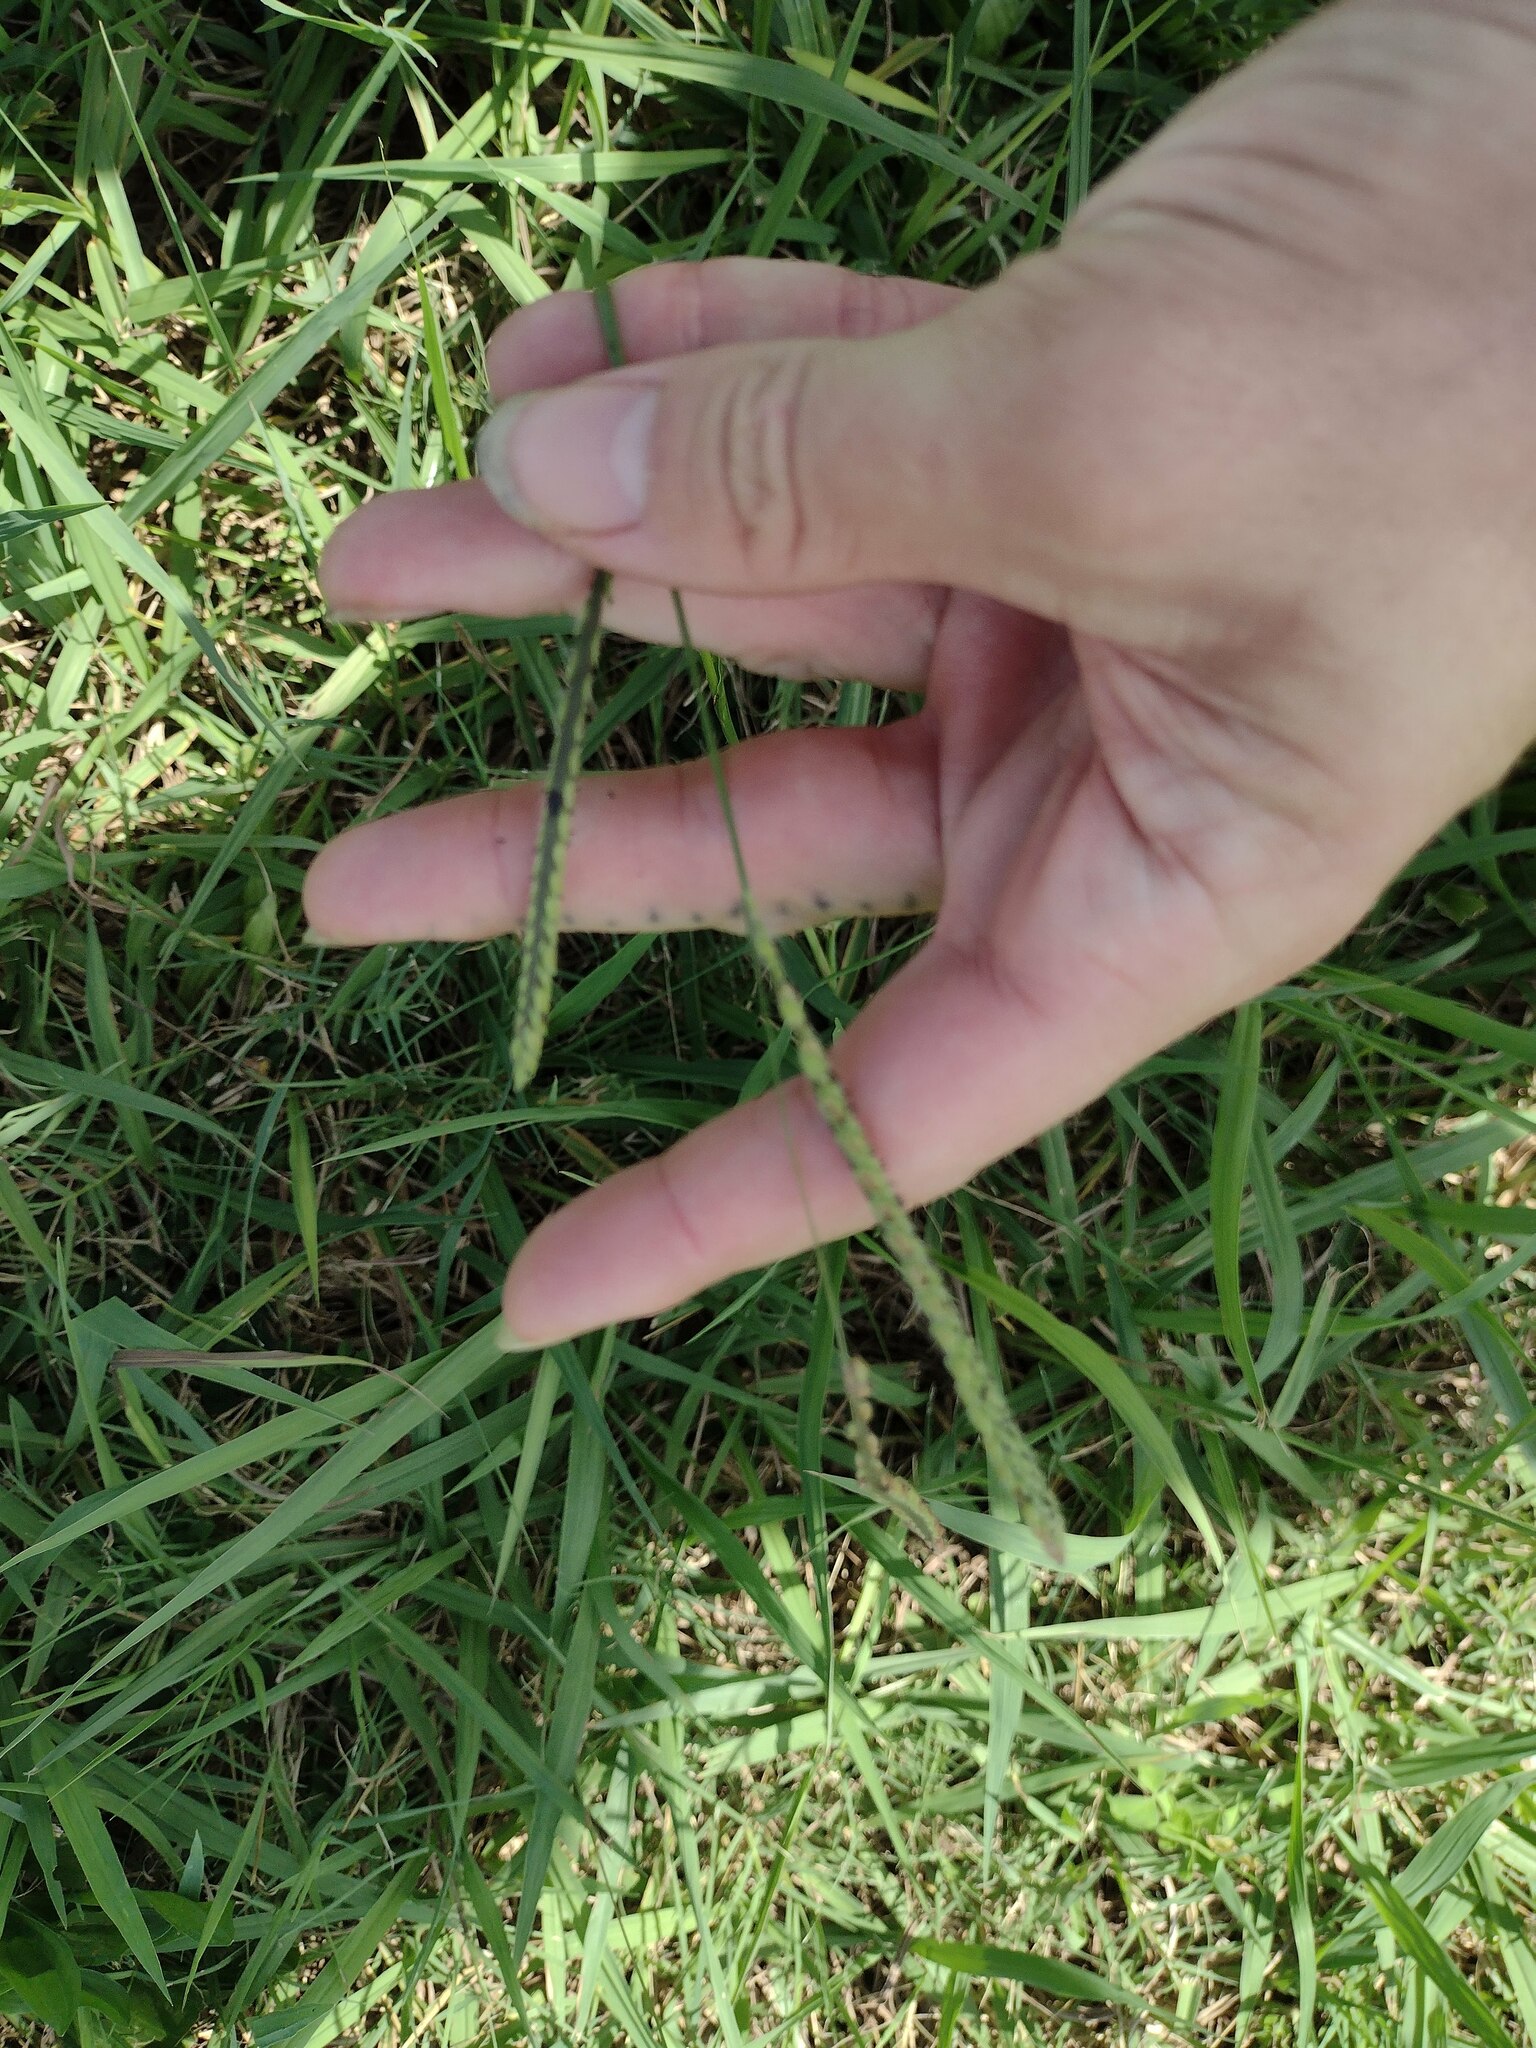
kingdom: Plantae
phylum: Tracheophyta
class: Liliopsida
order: Poales
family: Poaceae
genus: Paspalum
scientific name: Paspalum dilatatum
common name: Dallisgrass
